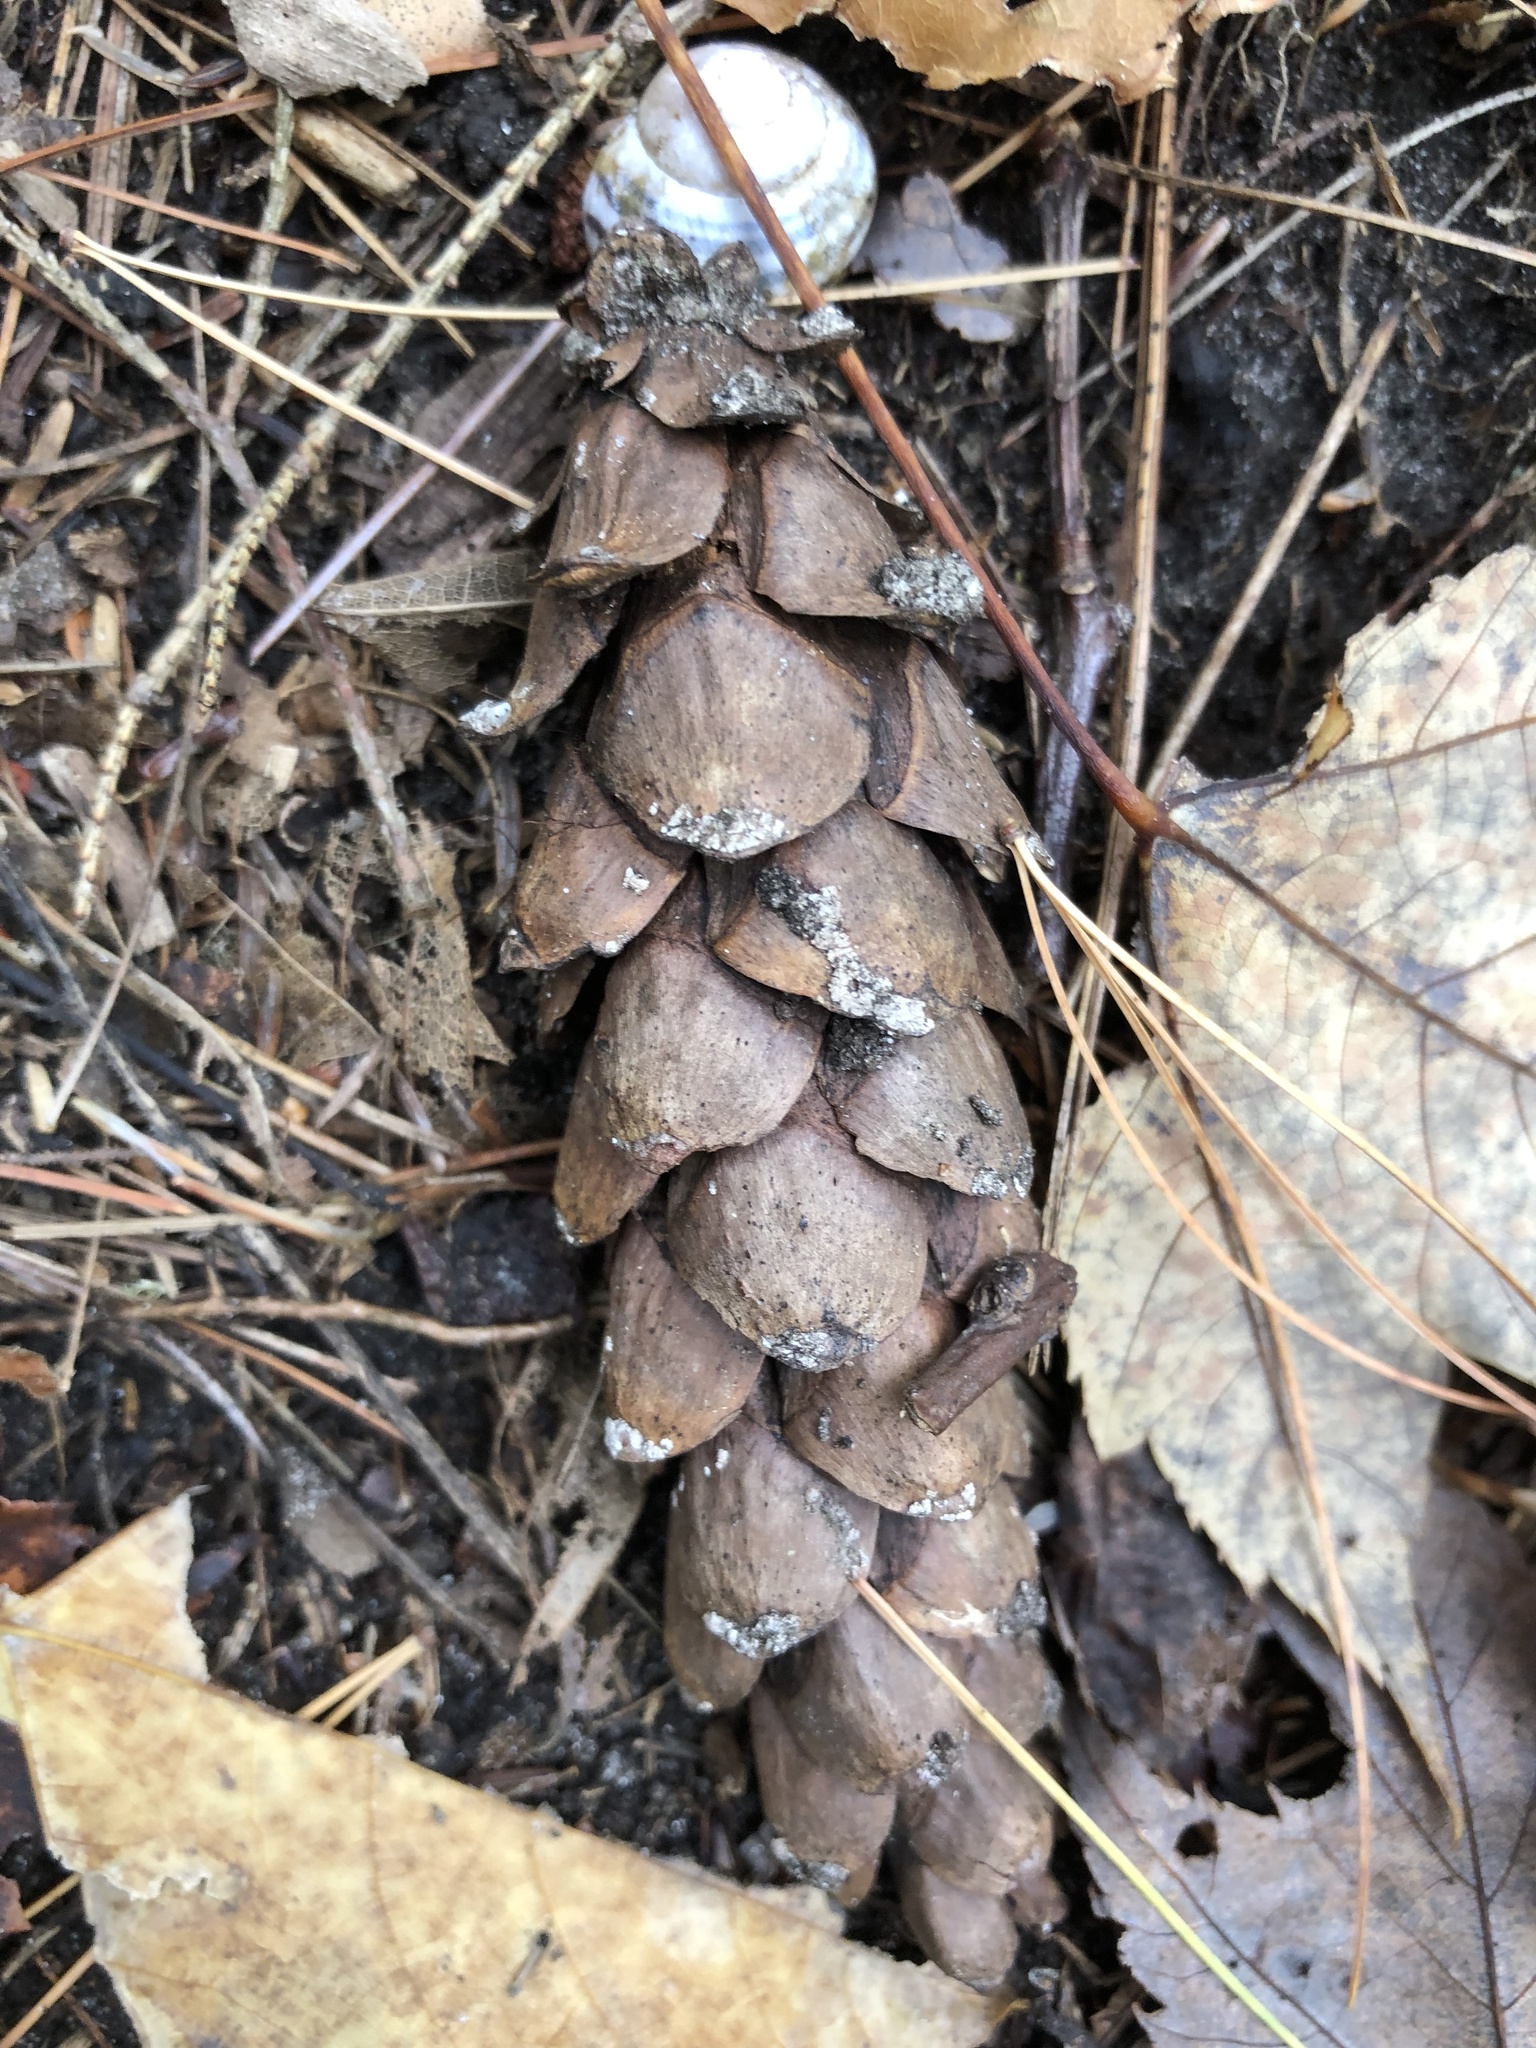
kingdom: Plantae
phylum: Tracheophyta
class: Pinopsida
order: Pinales
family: Pinaceae
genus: Pinus
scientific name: Pinus strobus
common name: Weymouth pine
